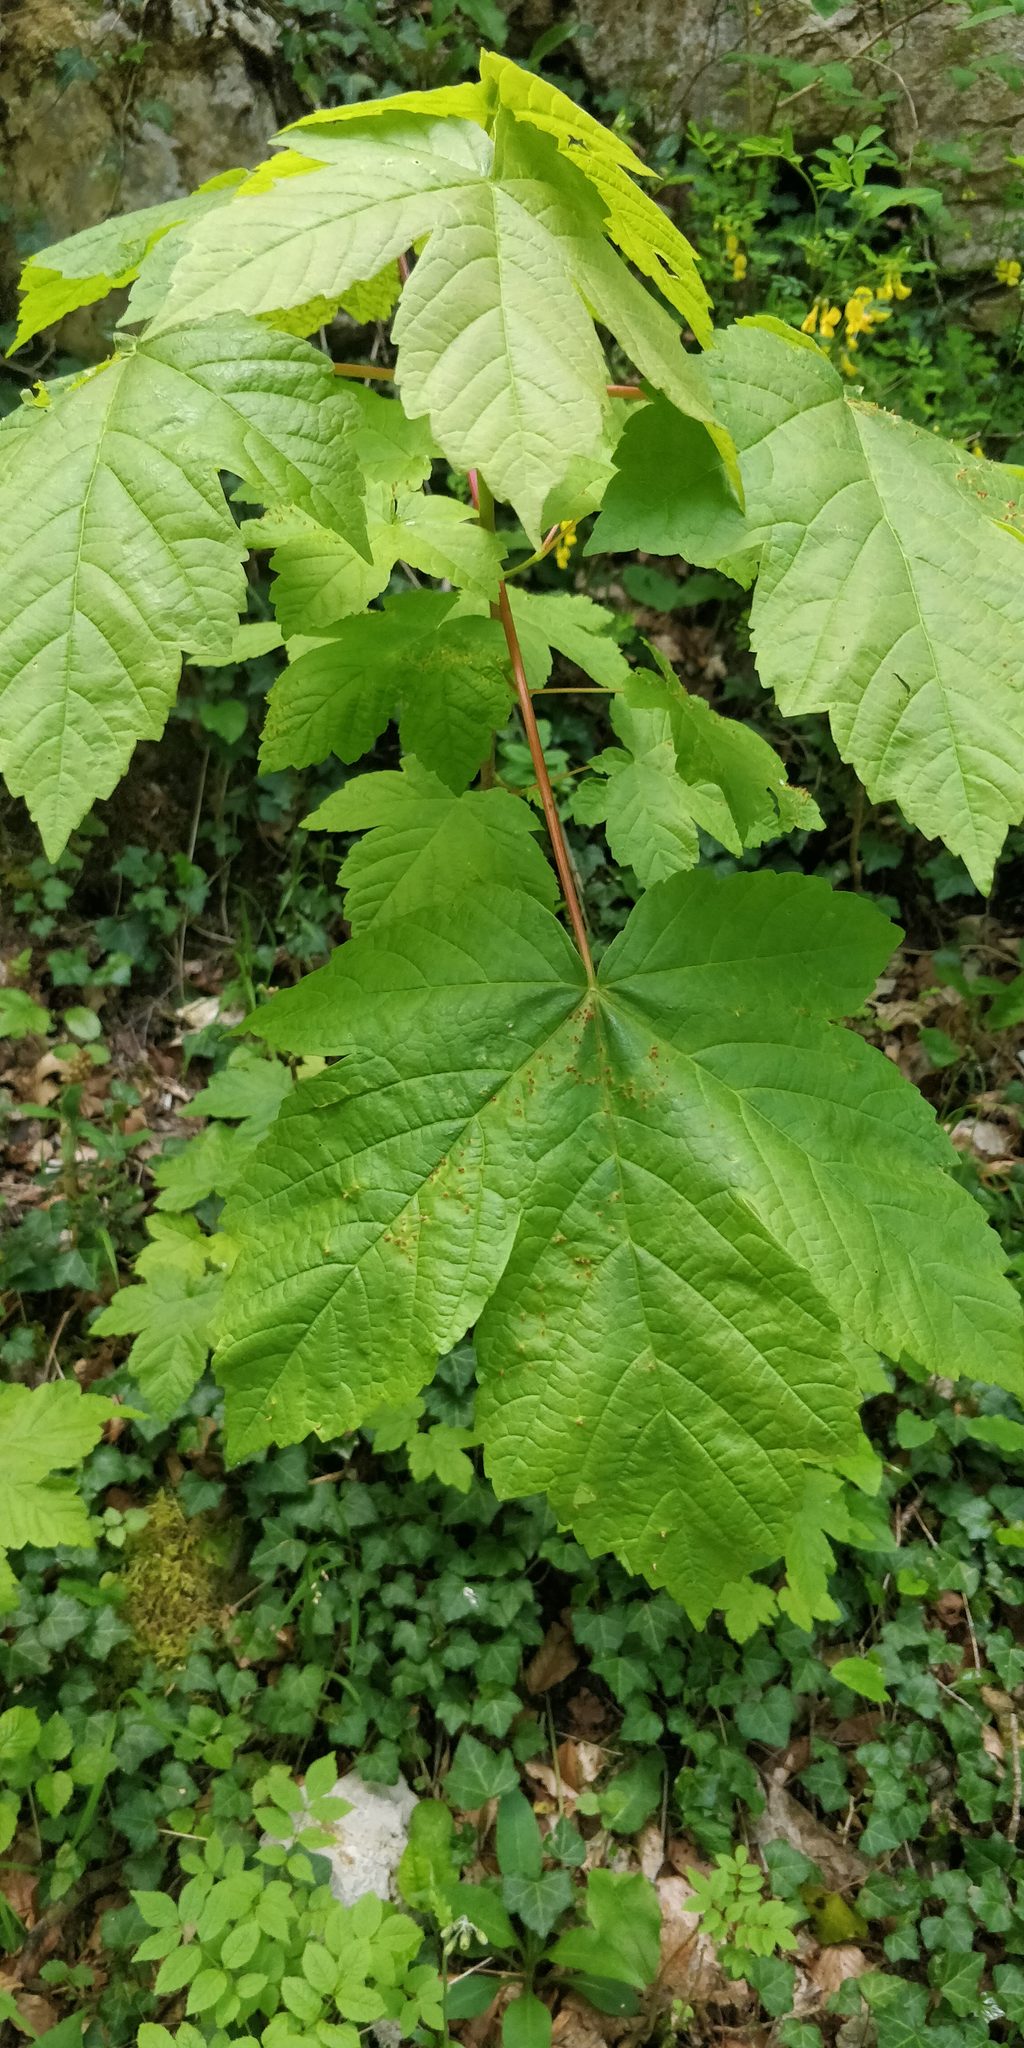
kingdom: Plantae
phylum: Tracheophyta
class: Magnoliopsida
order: Sapindales
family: Sapindaceae
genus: Acer
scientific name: Acer pseudoplatanus
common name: Sycamore
